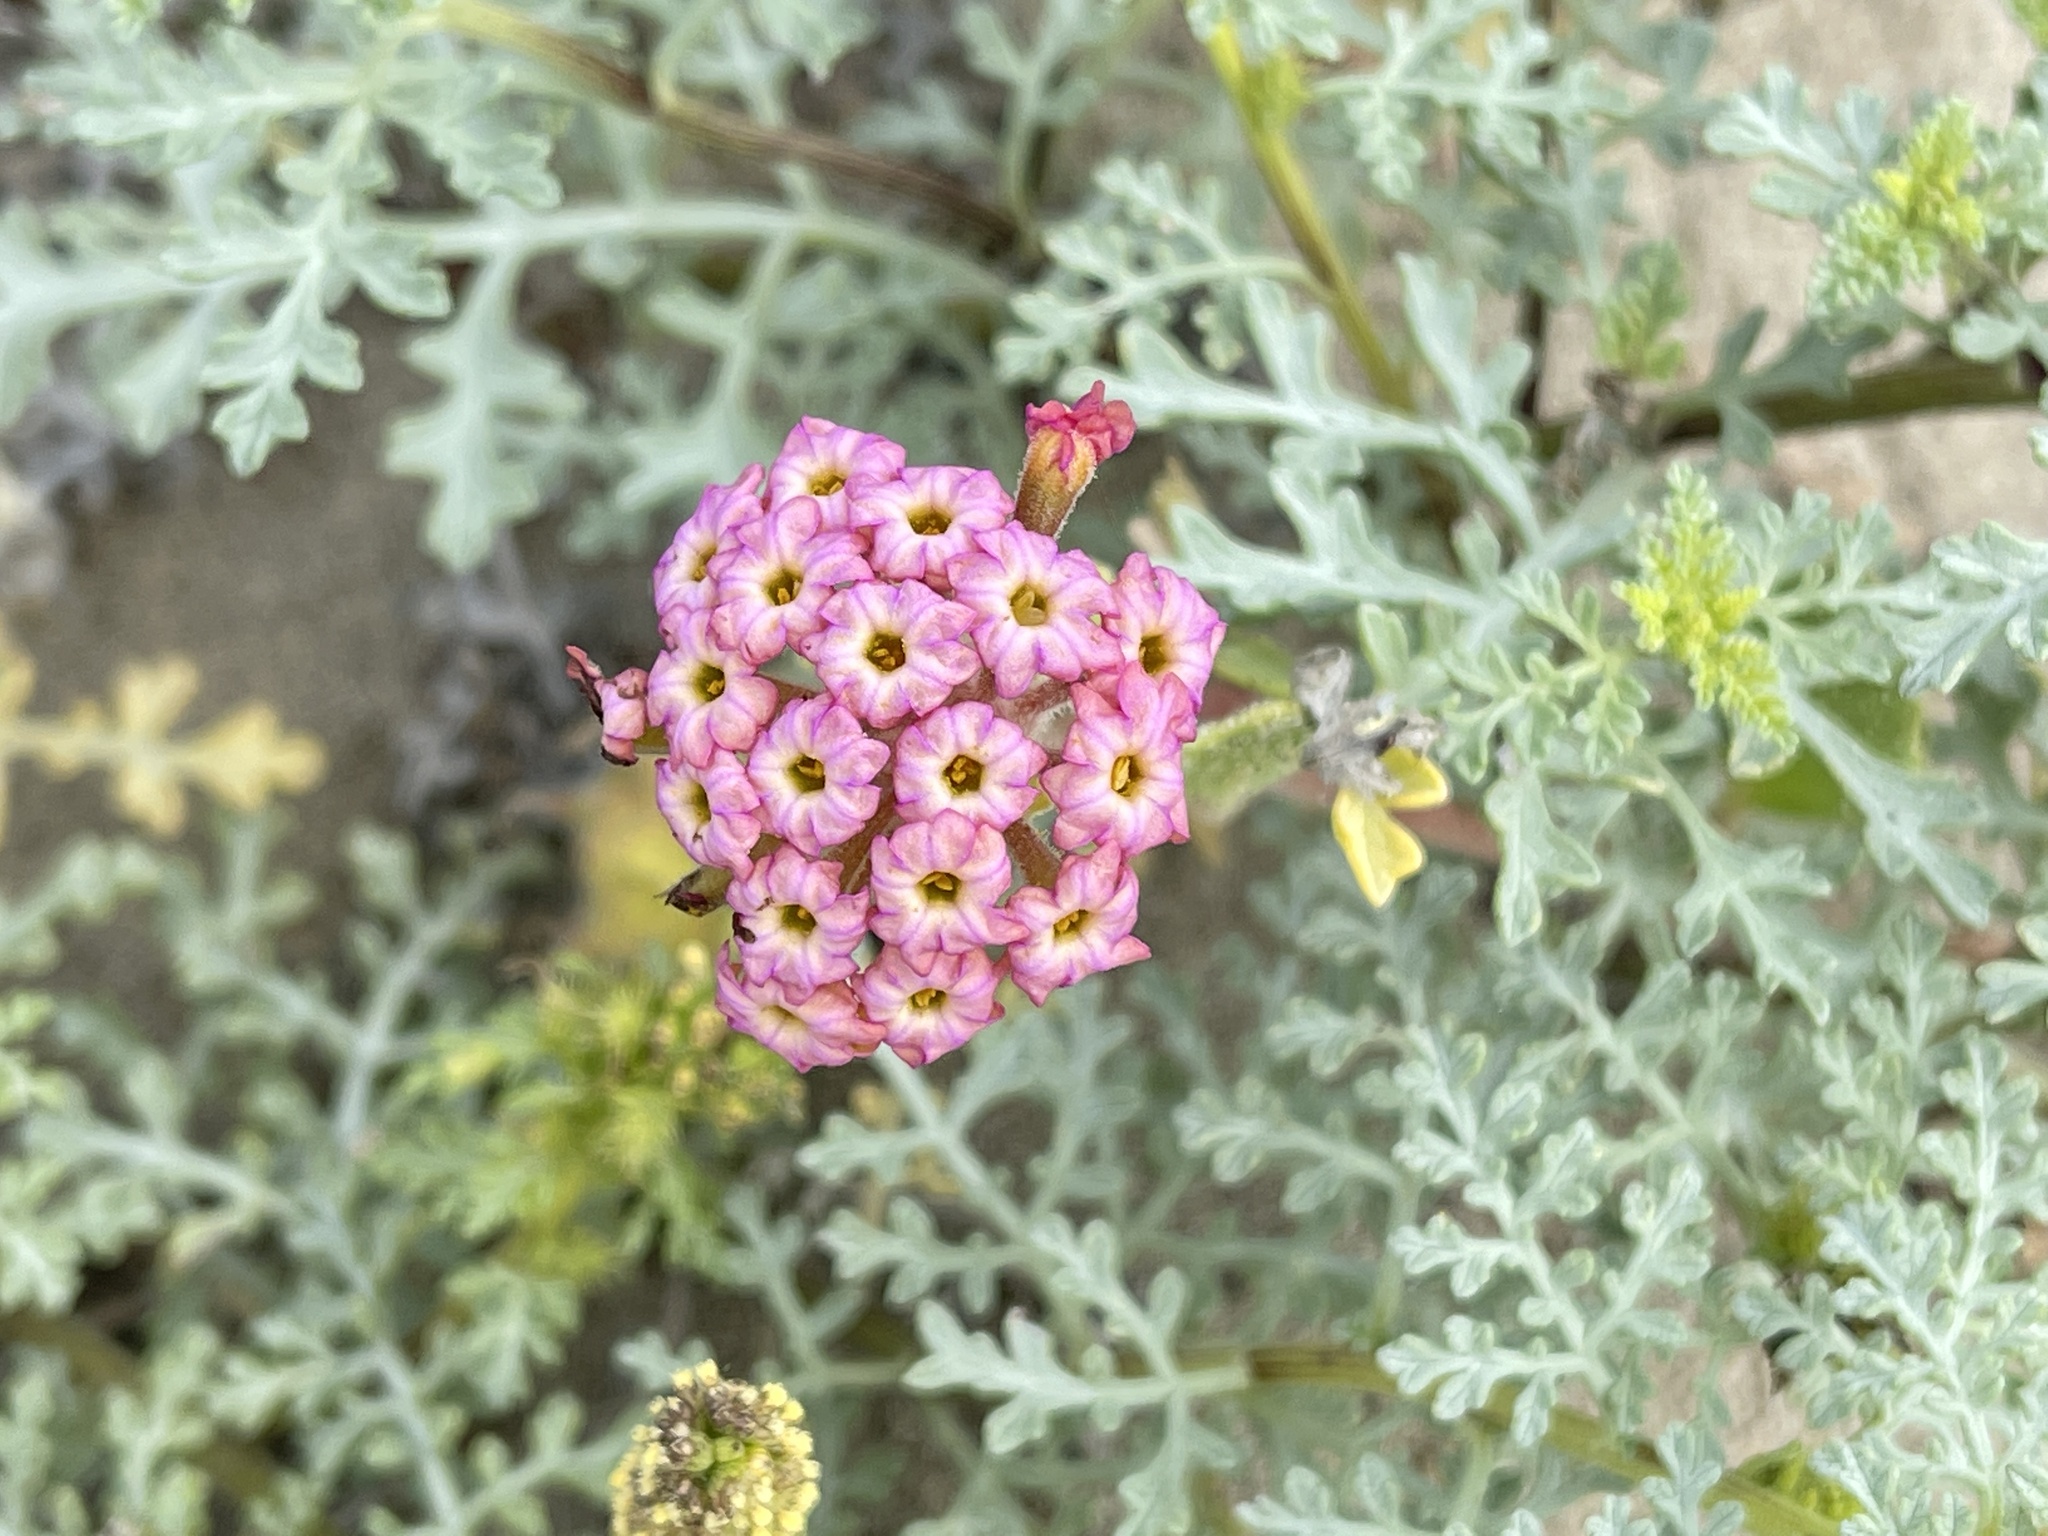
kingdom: Plantae
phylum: Tracheophyta
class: Magnoliopsida
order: Caryophyllales
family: Nyctaginaceae
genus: Abronia
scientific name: Abronia
